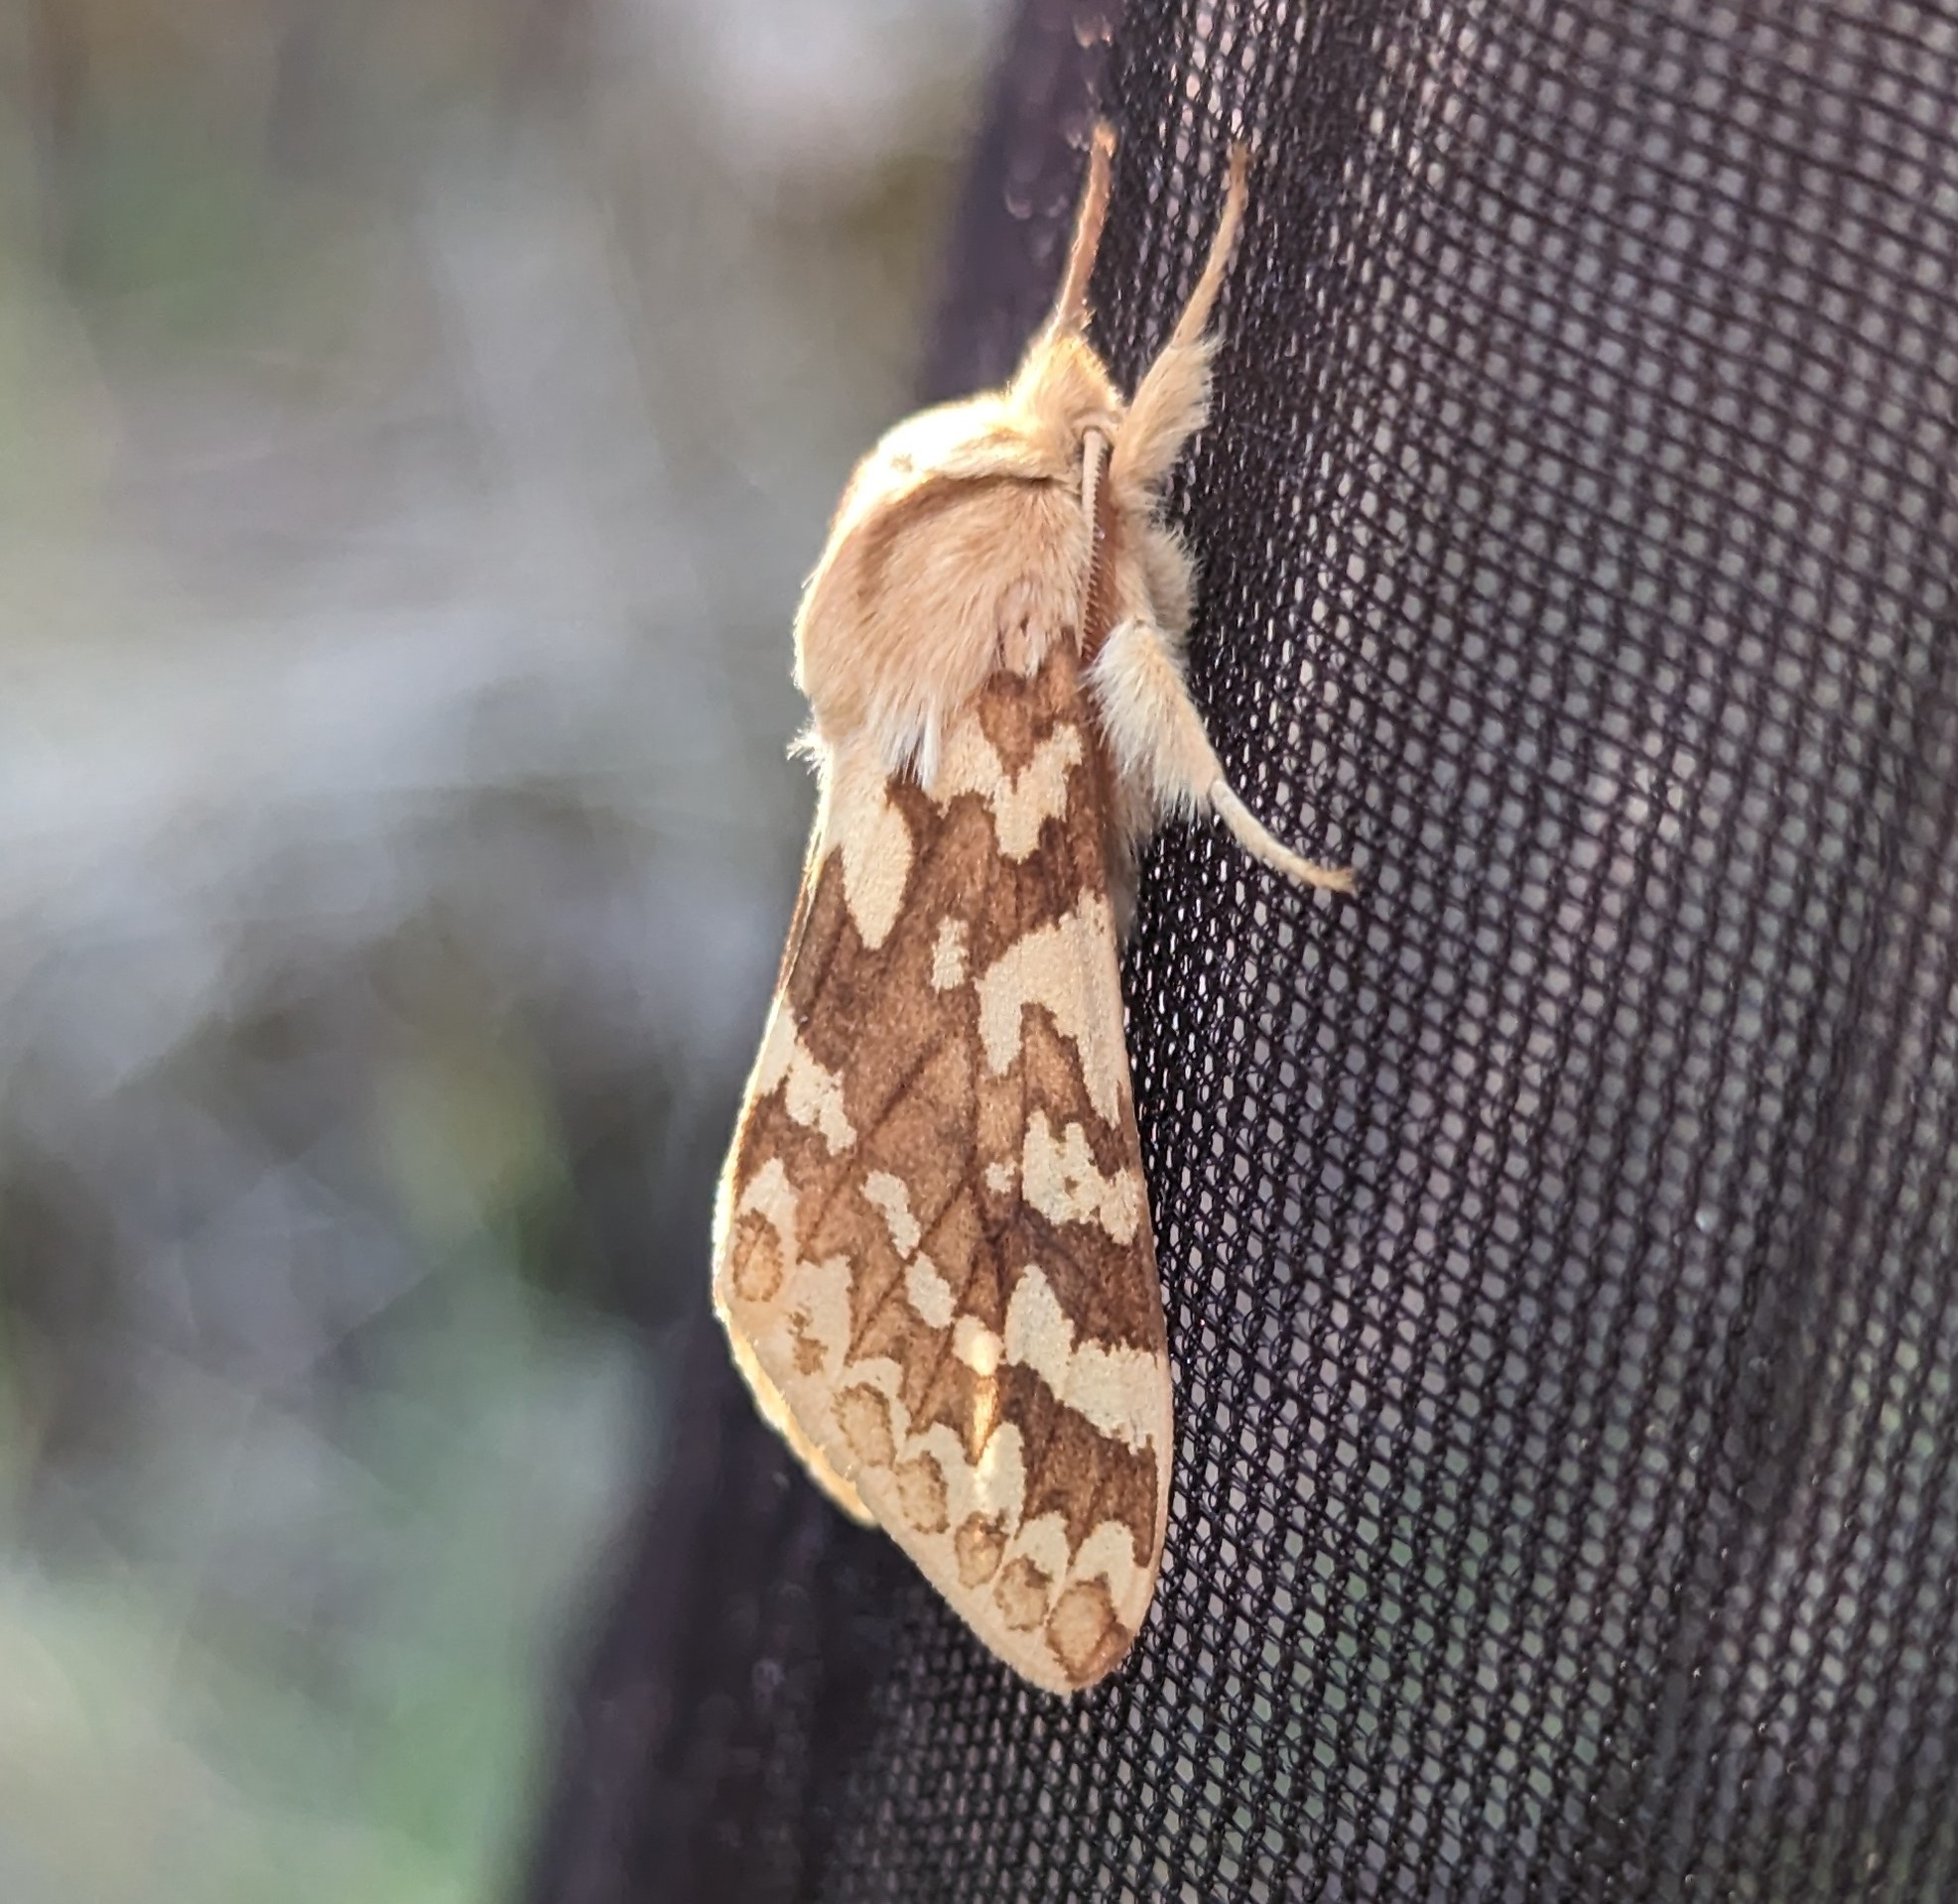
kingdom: Animalia
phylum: Arthropoda
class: Insecta
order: Lepidoptera
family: Erebidae
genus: Lophocampa
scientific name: Lophocampa maculata
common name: Spotted tussock moth
